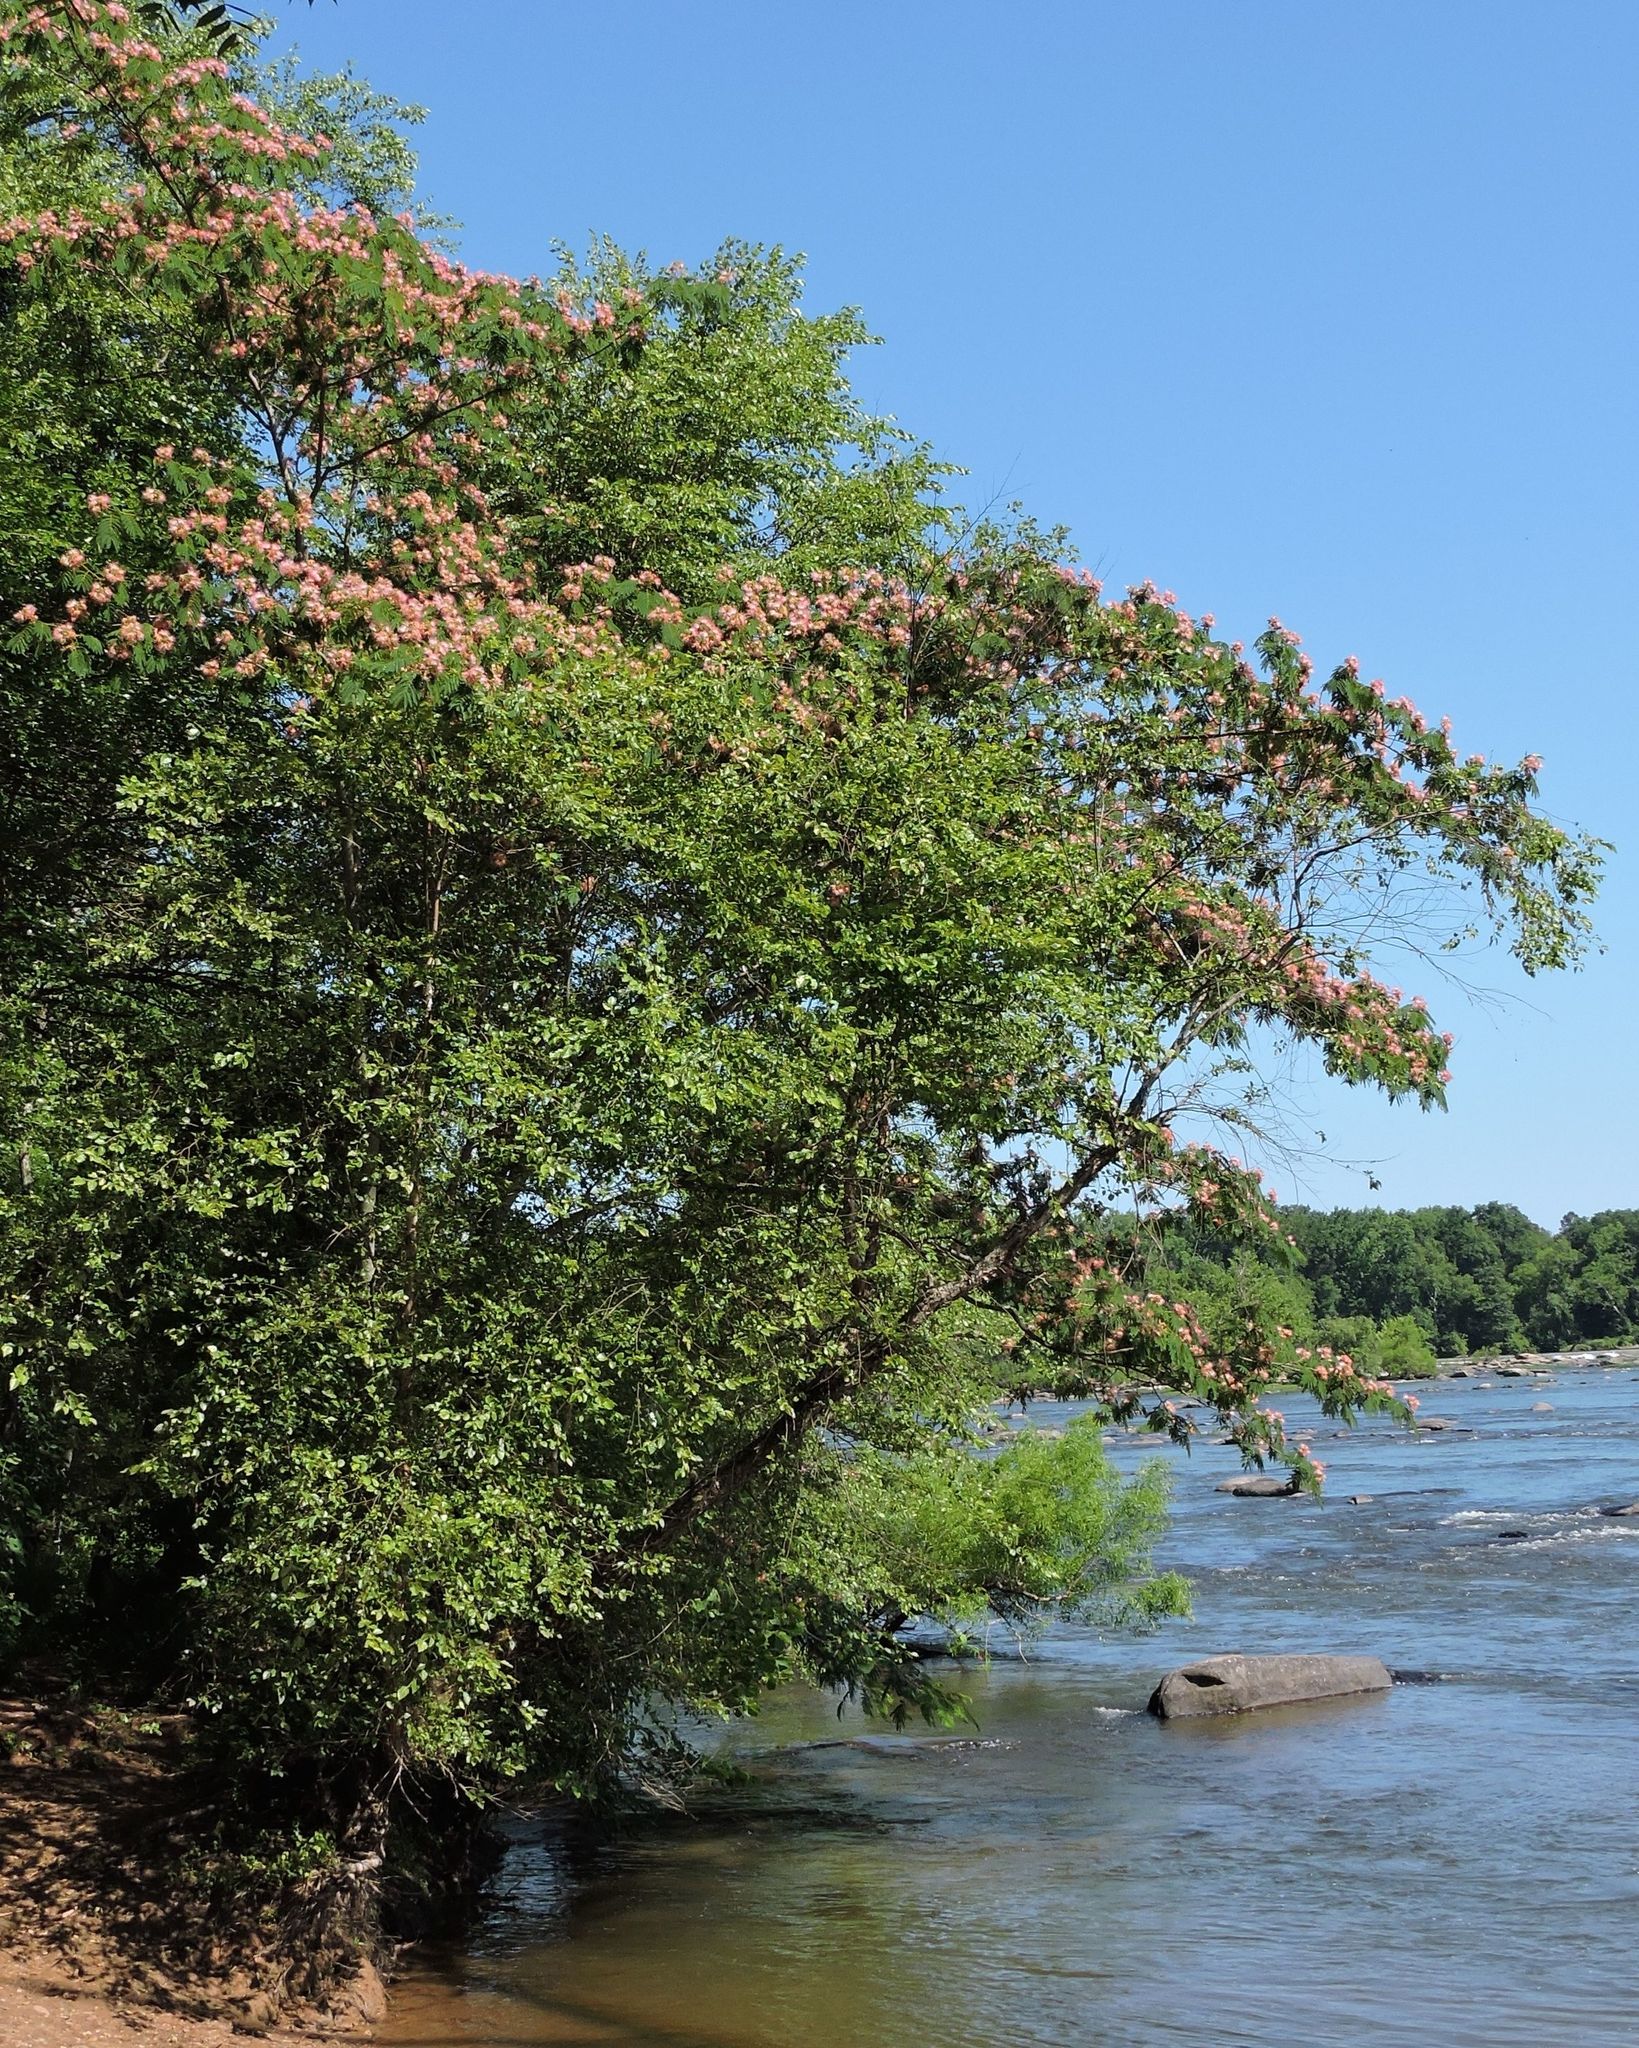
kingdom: Plantae
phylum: Tracheophyta
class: Magnoliopsida
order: Fabales
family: Fabaceae
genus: Albizia
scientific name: Albizia julibrissin
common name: Silktree
